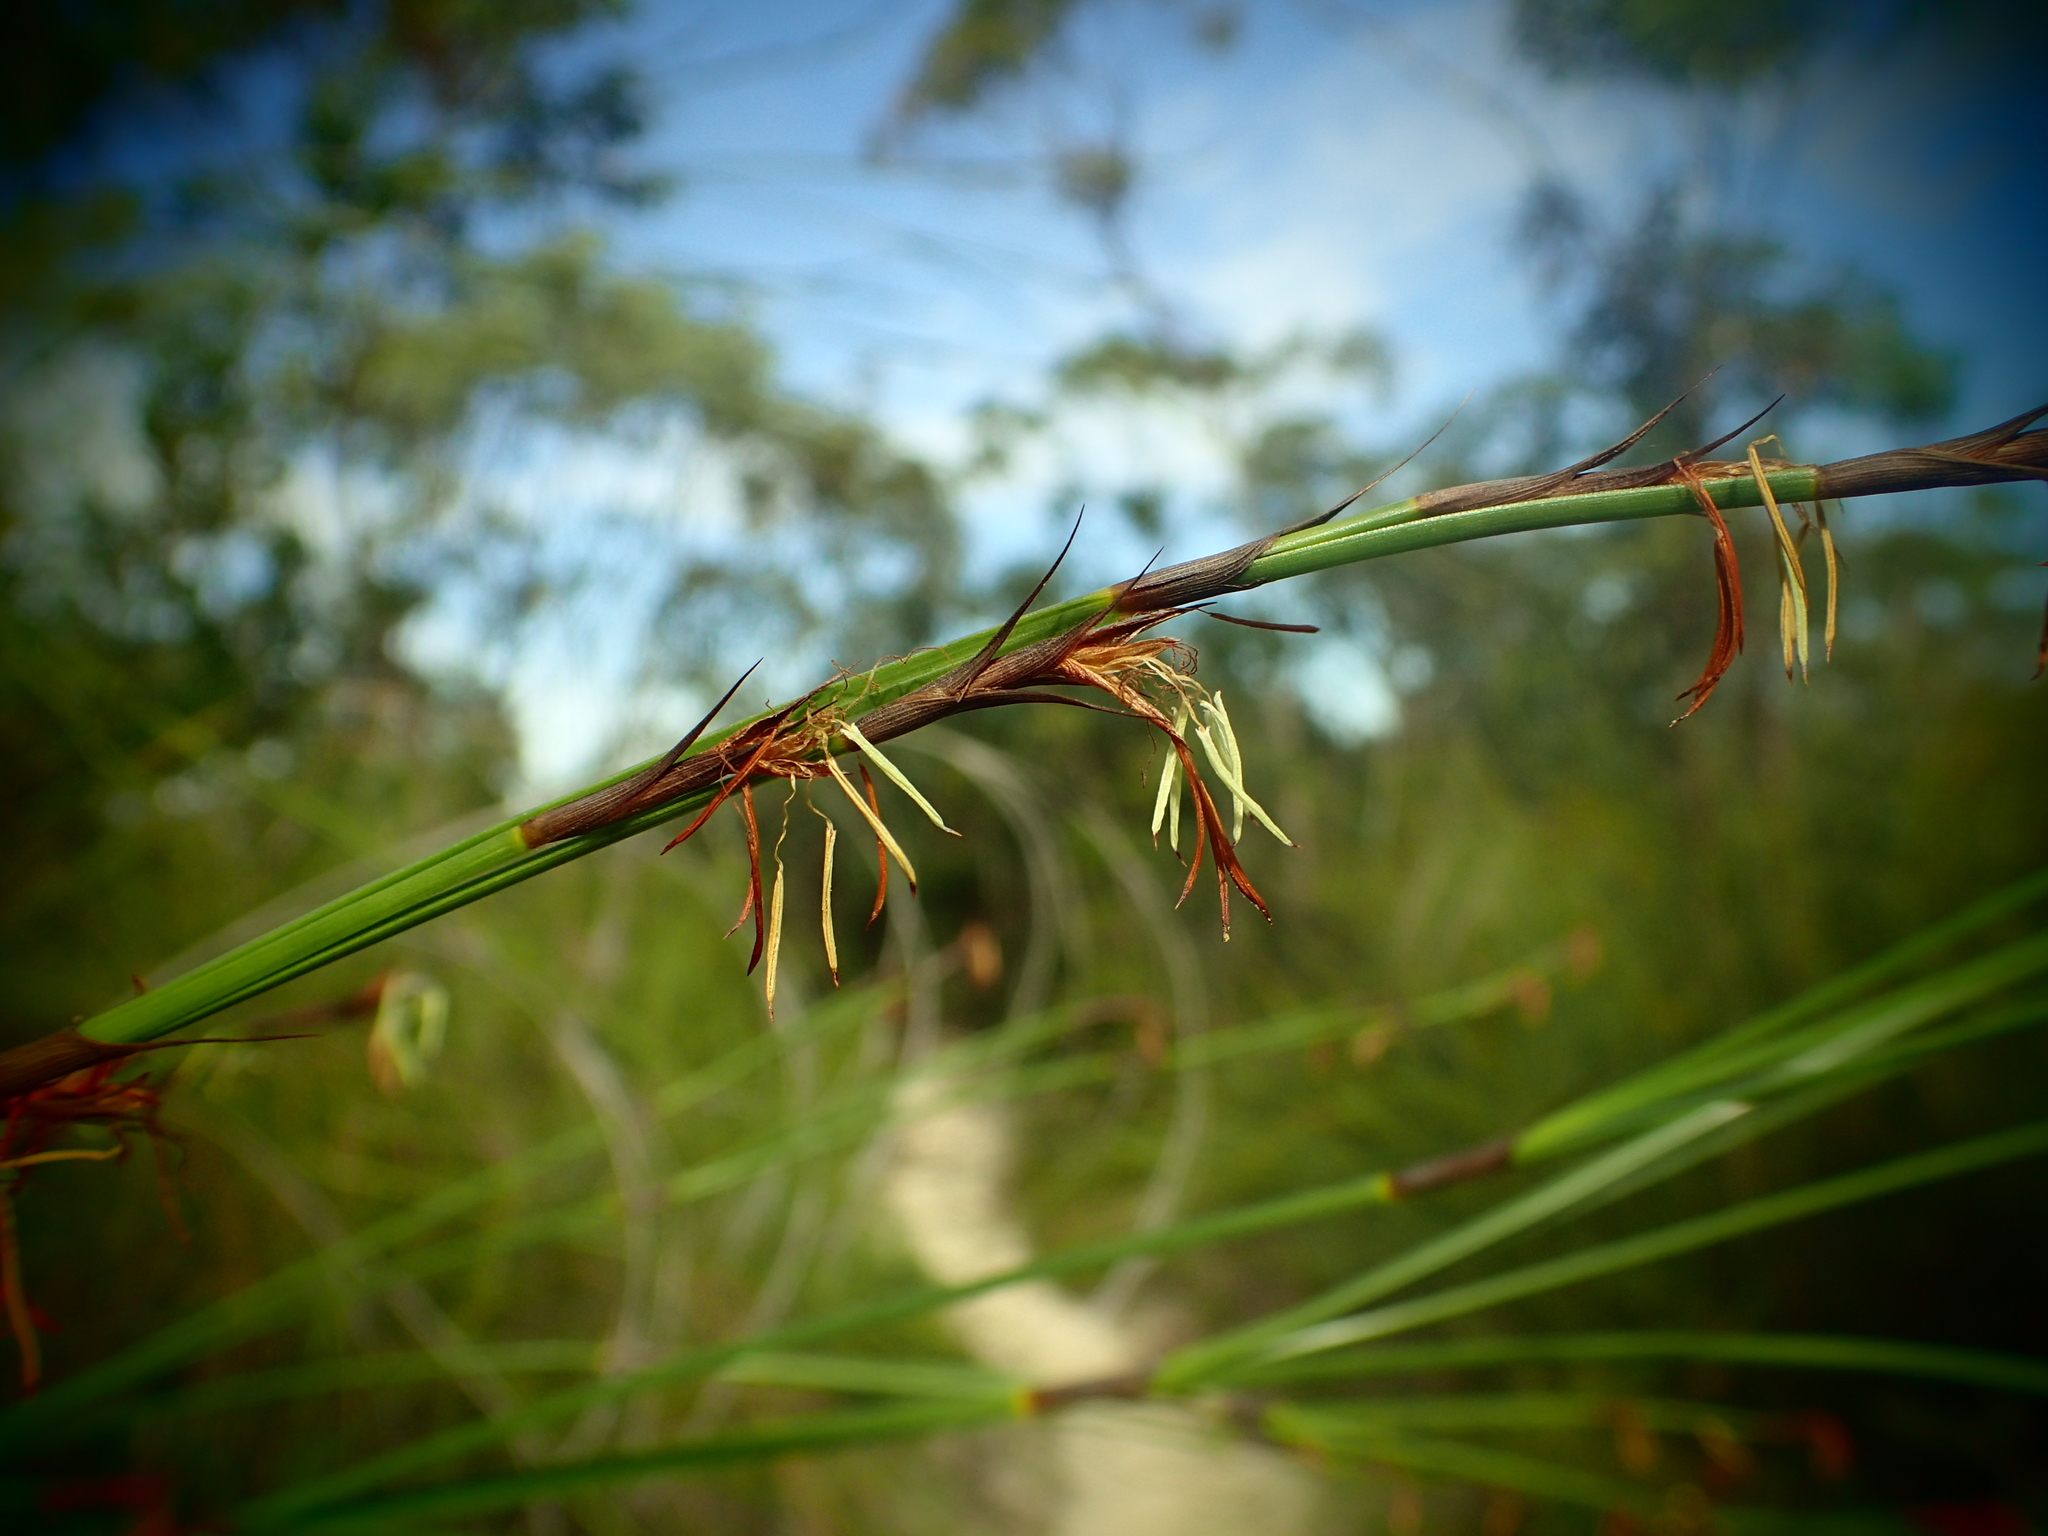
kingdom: Plantae
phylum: Tracheophyta
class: Liliopsida
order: Poales
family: Cyperaceae
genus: Caustis
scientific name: Caustis pentandra
